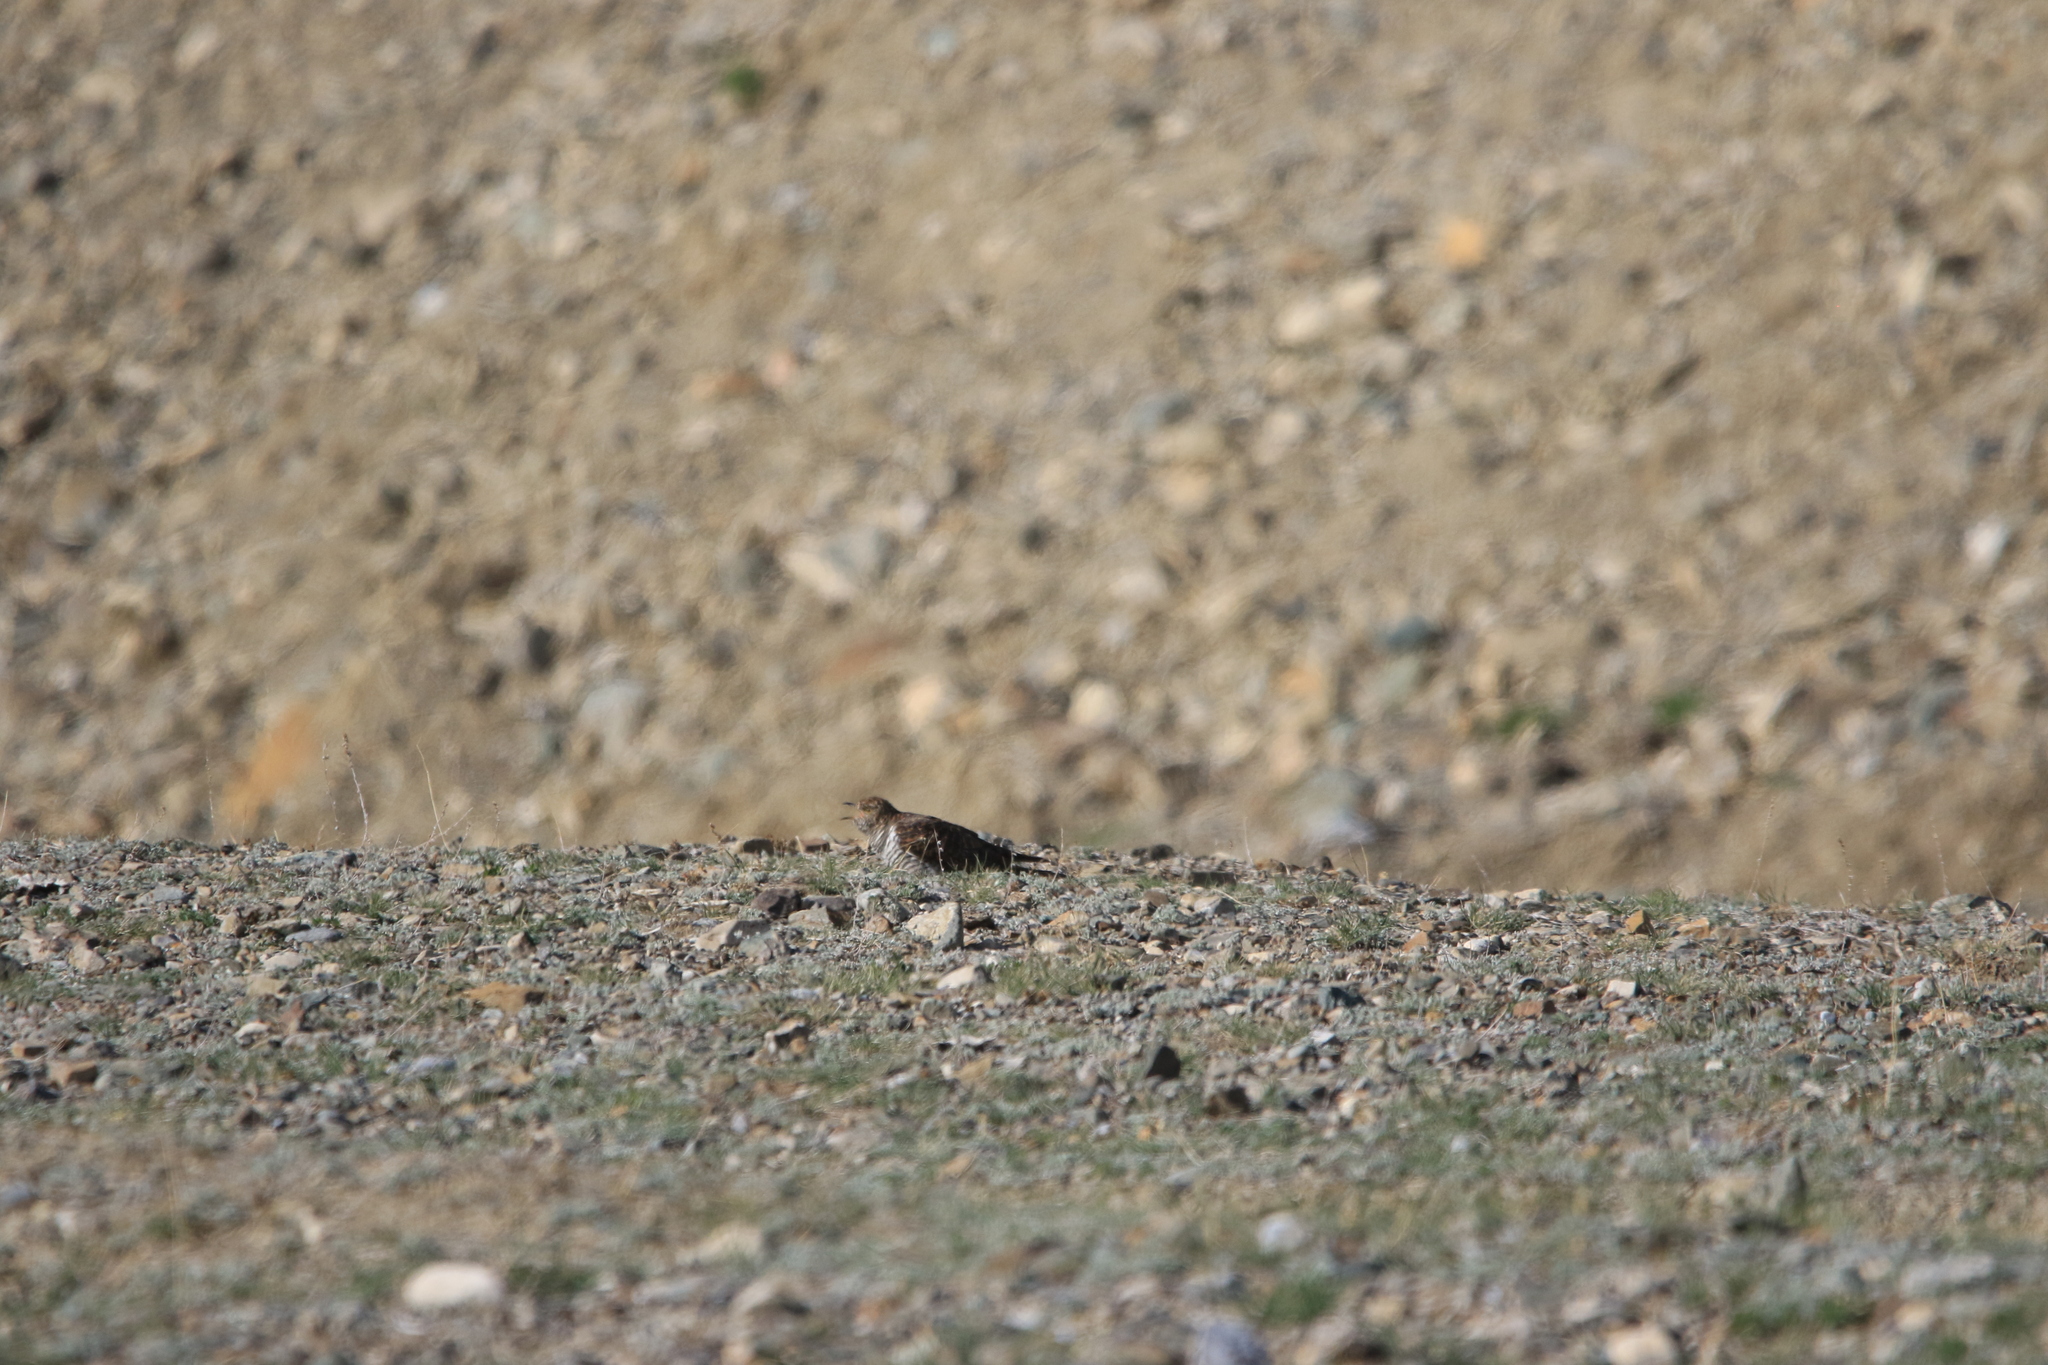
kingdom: Animalia
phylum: Chordata
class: Aves
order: Cuculiformes
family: Cuculidae
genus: Cuculus
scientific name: Cuculus optatus
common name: Oriental cuckoo
